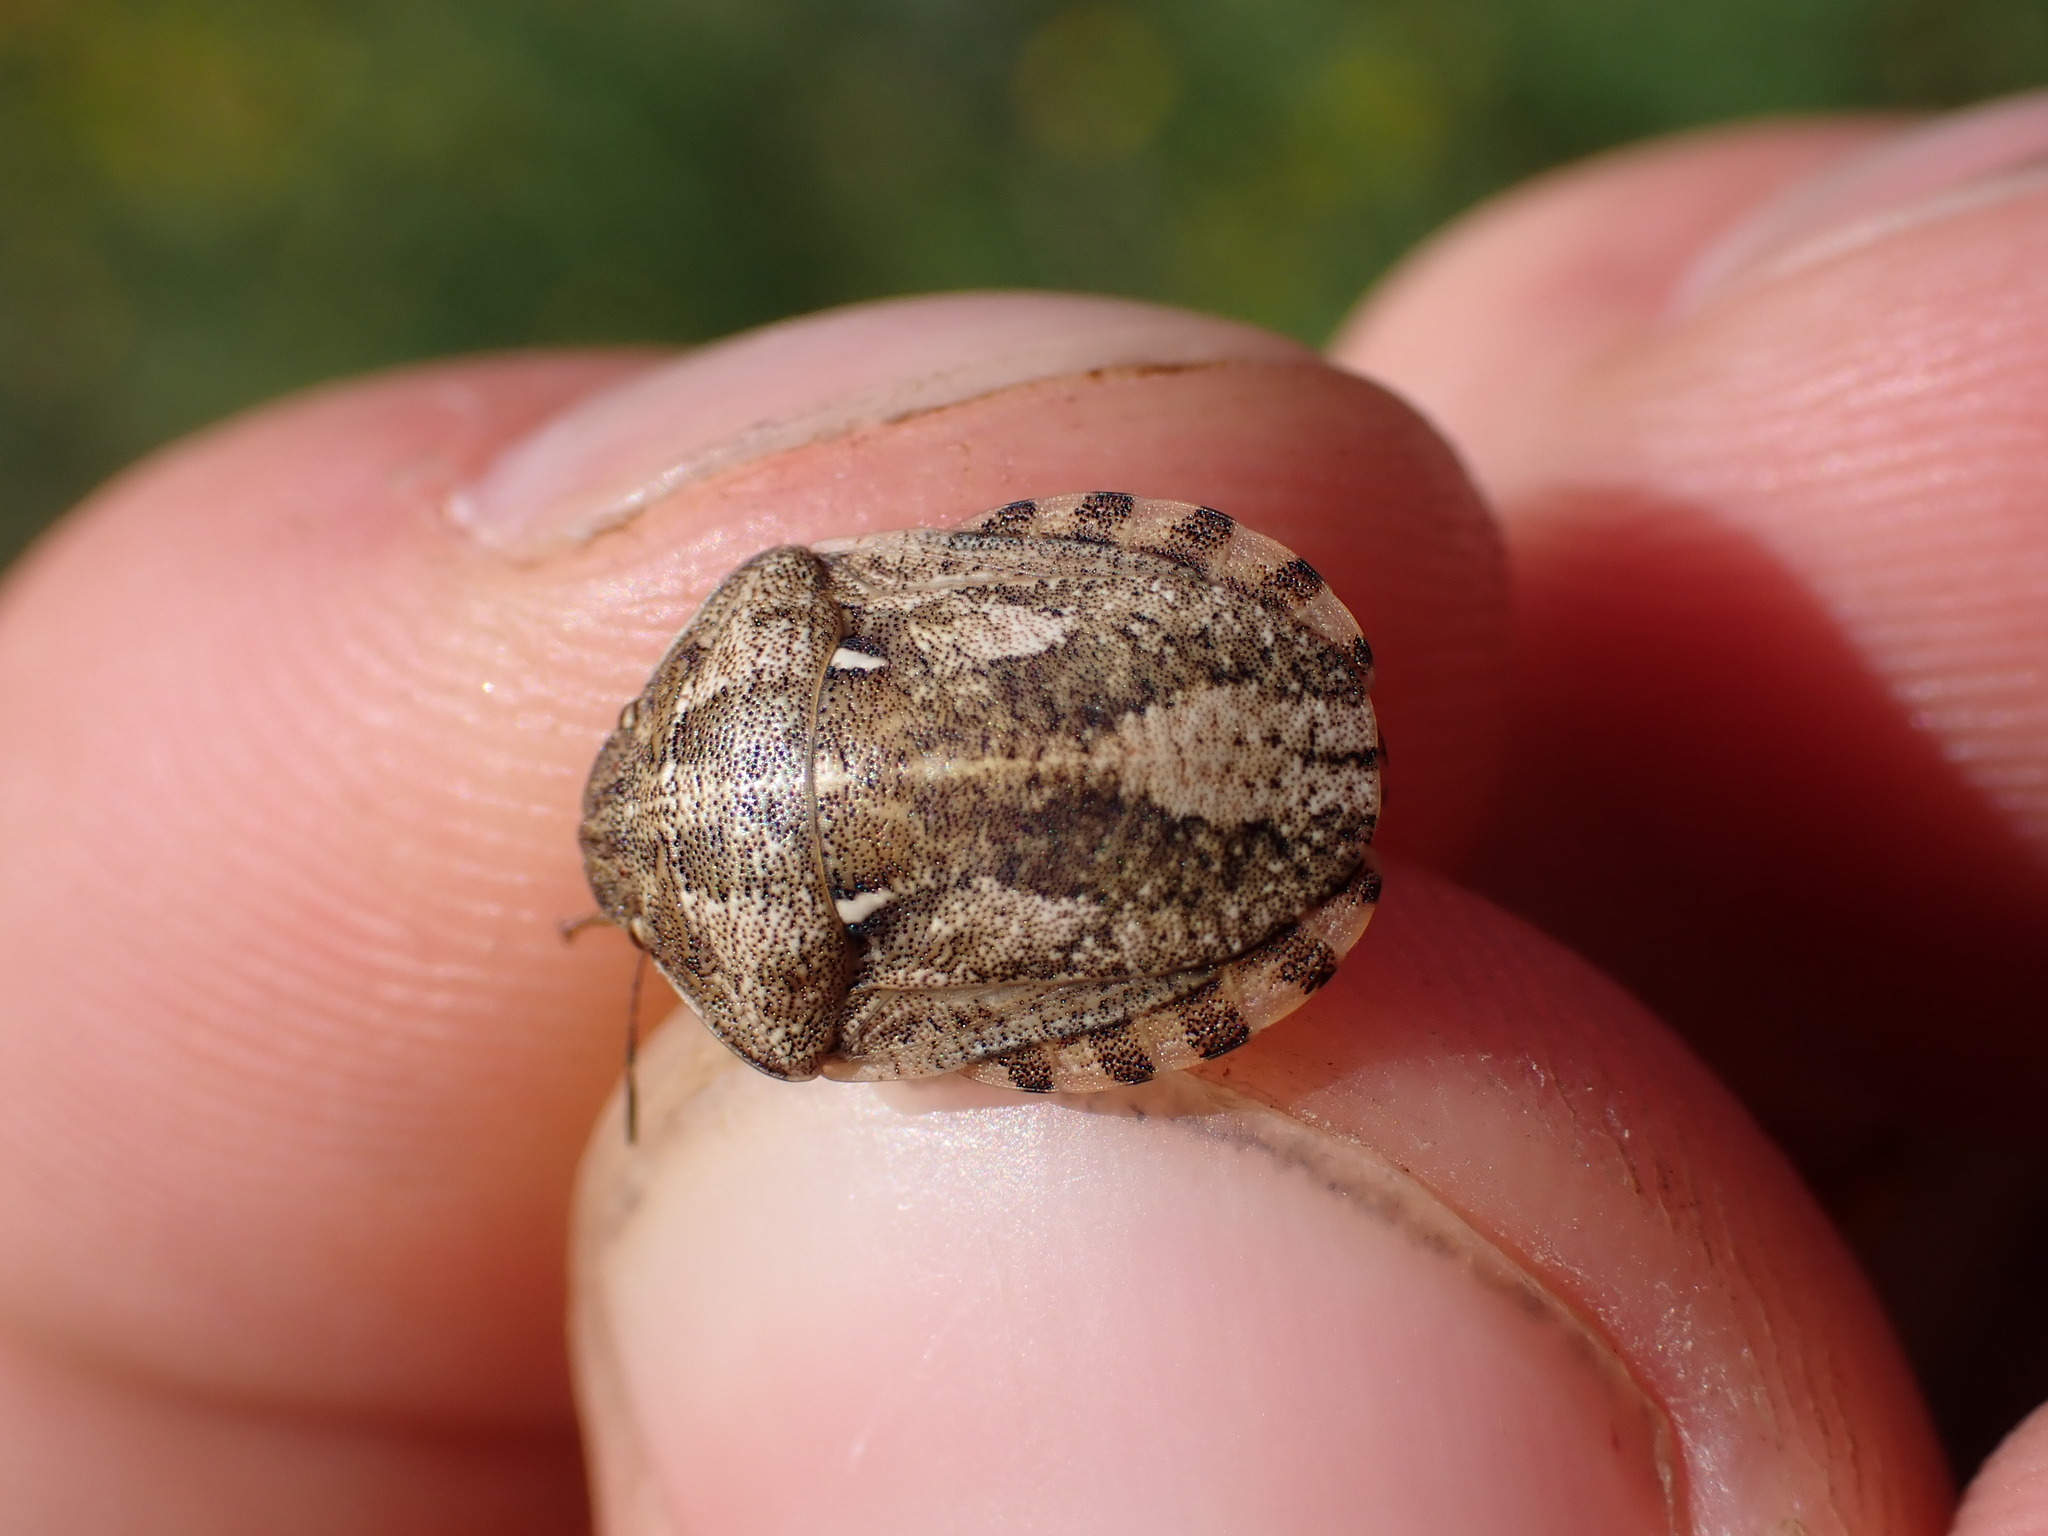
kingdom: Animalia
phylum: Arthropoda
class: Insecta
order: Hemiptera
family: Scutelleridae
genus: Eurygaster
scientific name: Eurygaster maura
